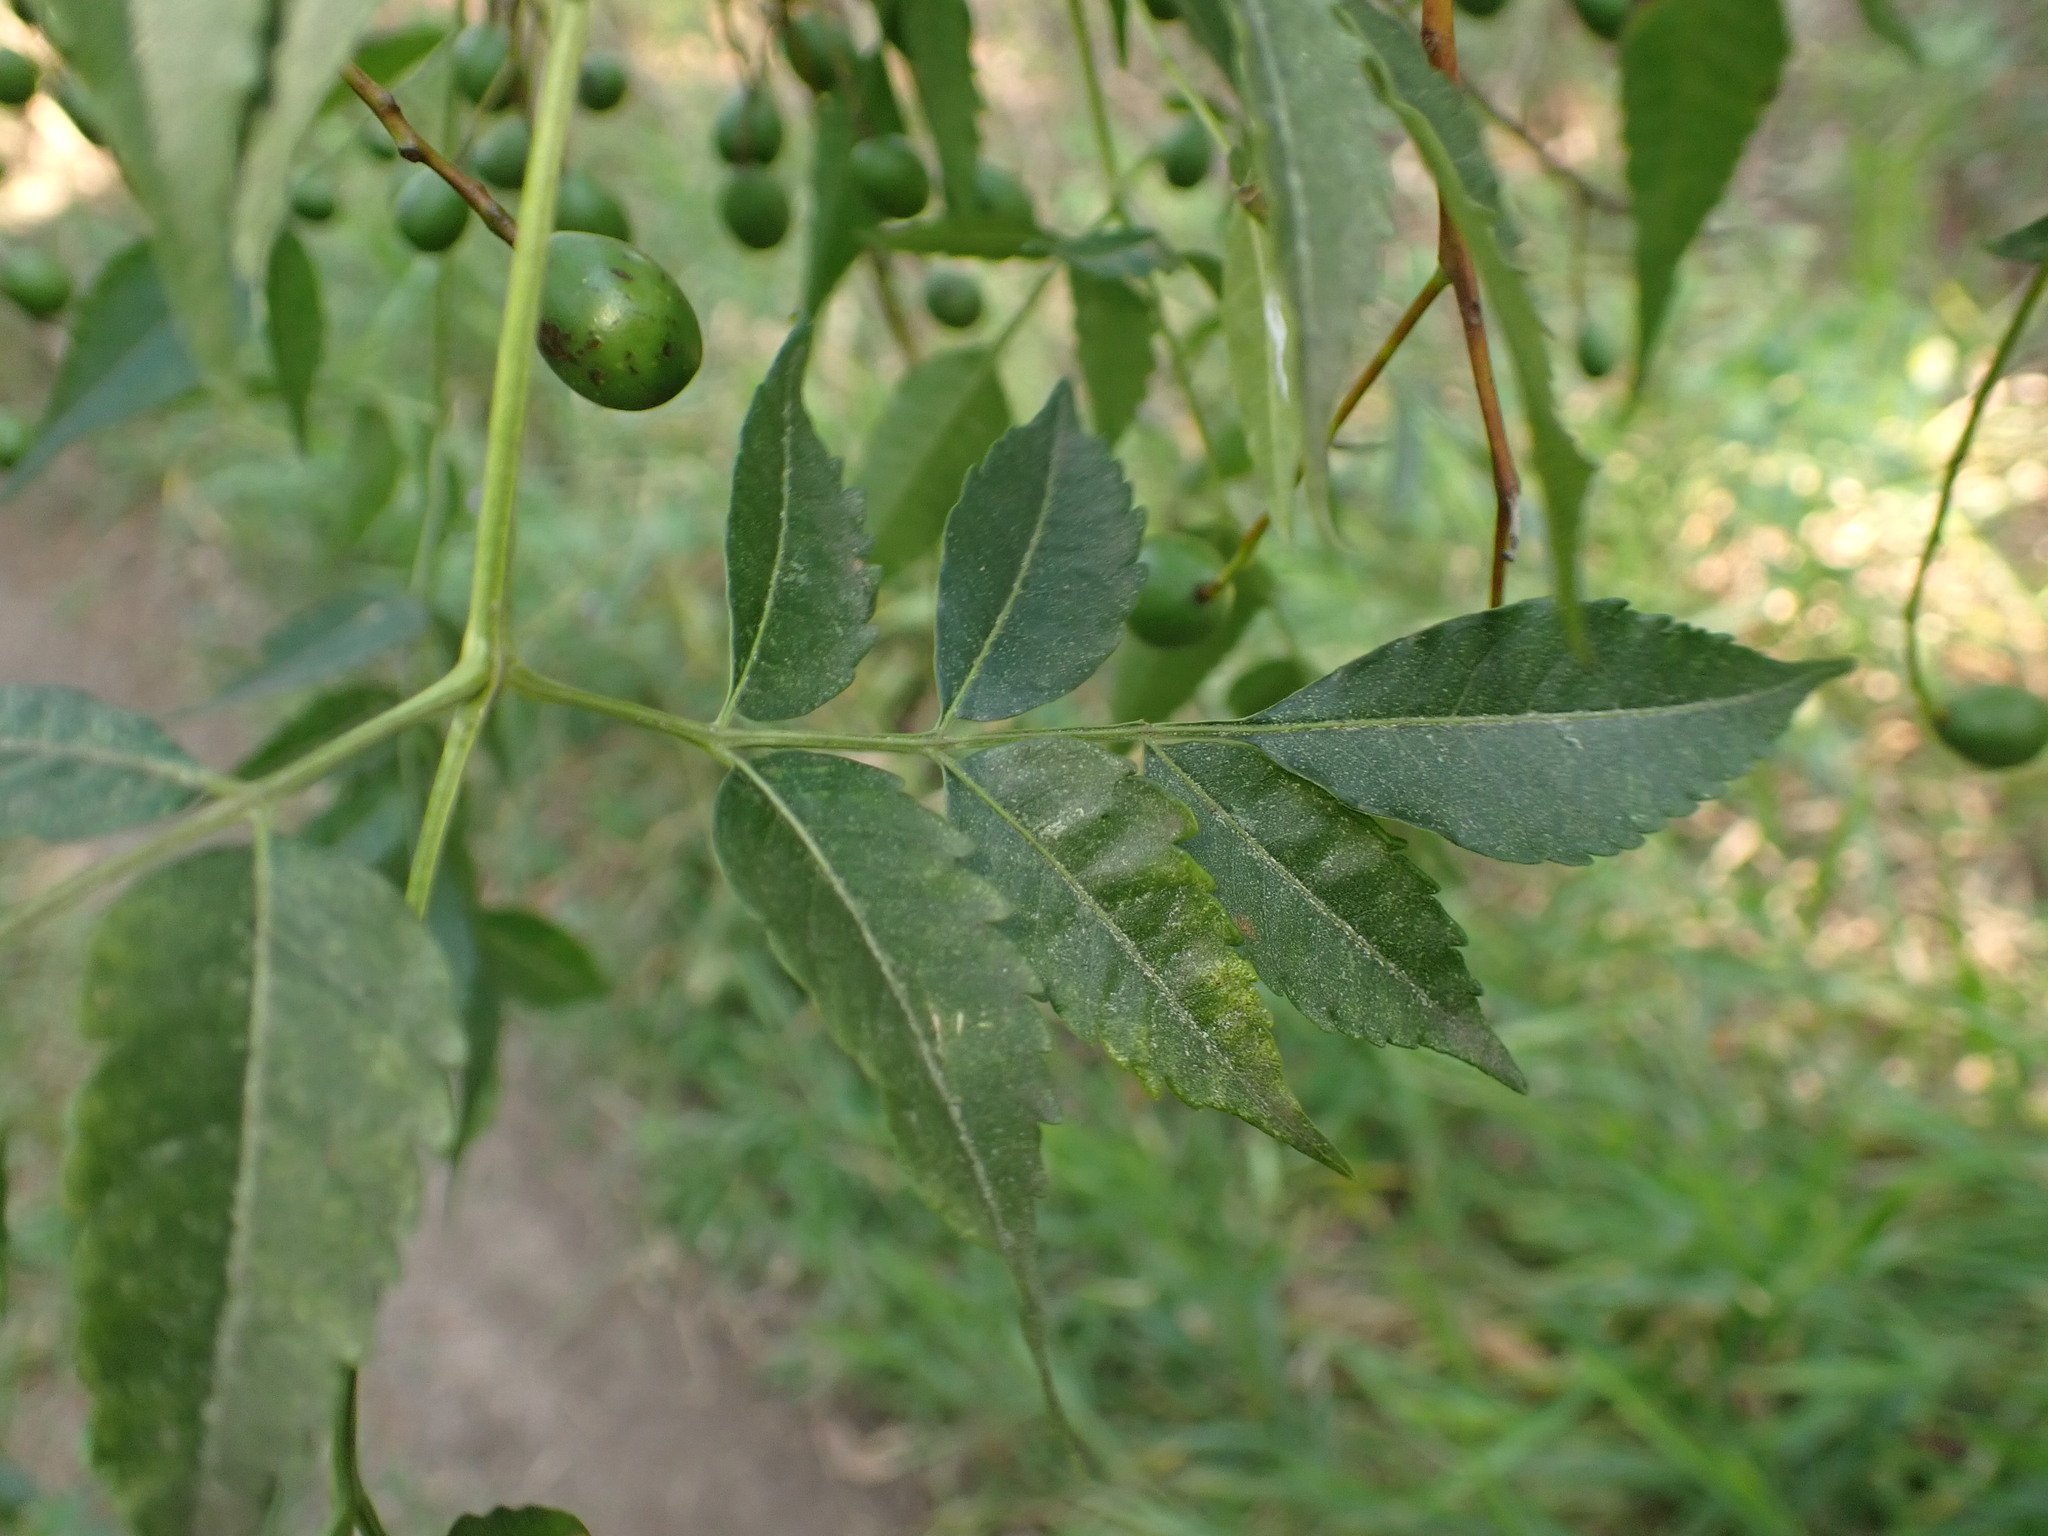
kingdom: Plantae
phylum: Tracheophyta
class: Magnoliopsida
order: Sapindales
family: Meliaceae
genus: Melia
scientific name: Melia azedarach
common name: Chinaberrytree
